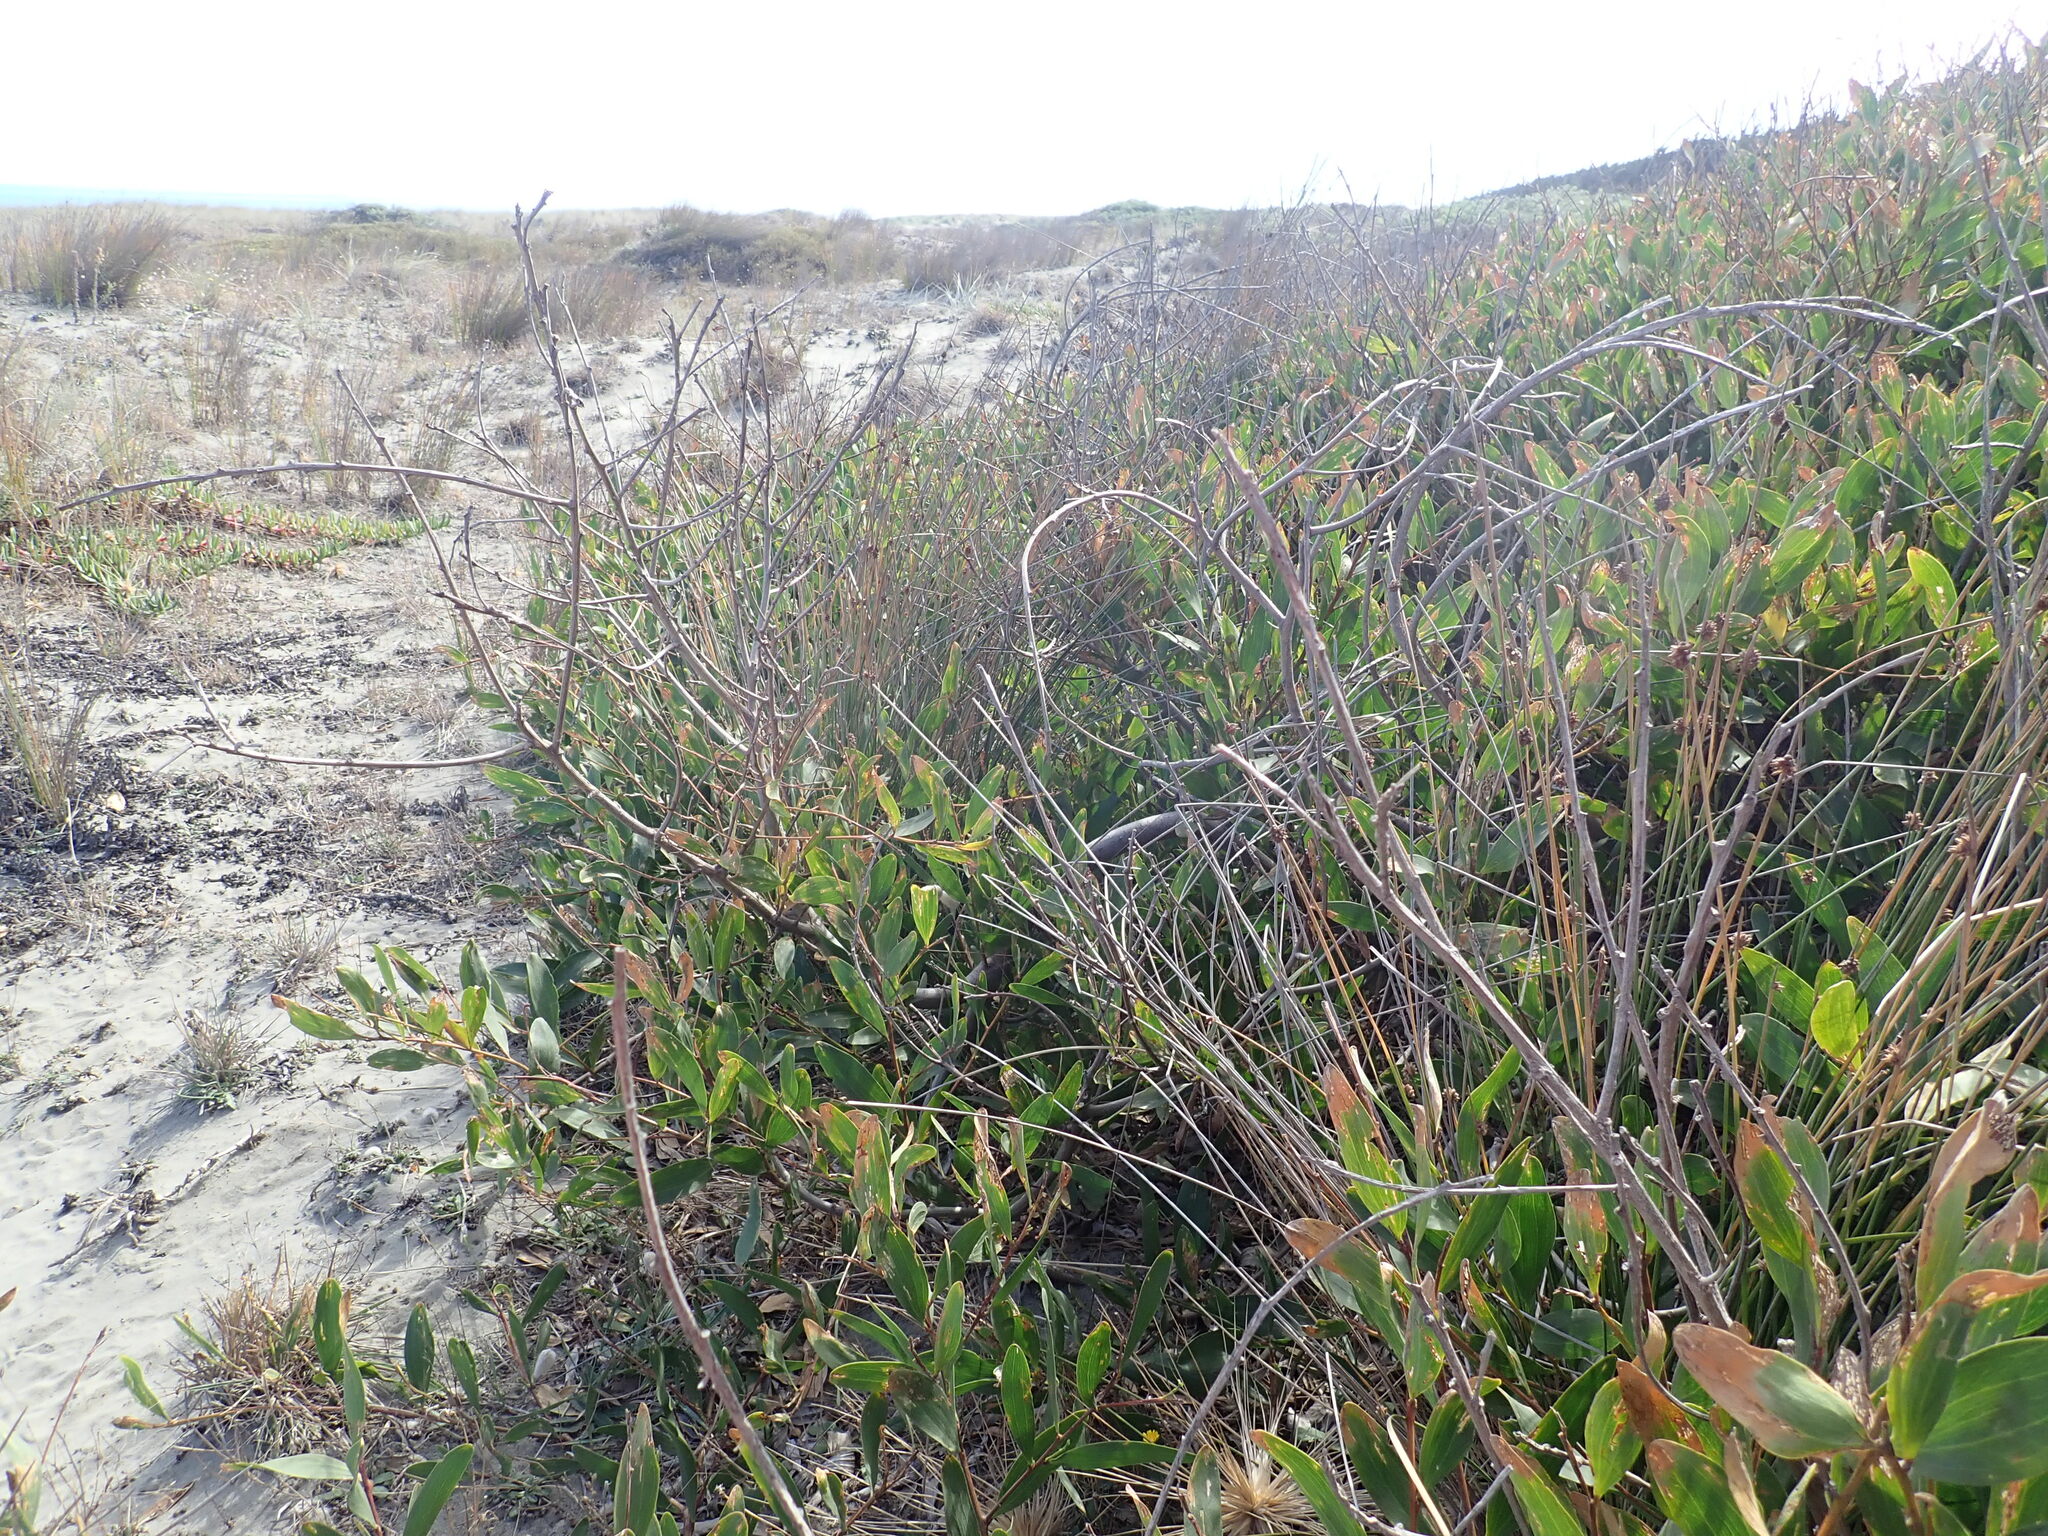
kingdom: Plantae
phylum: Tracheophyta
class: Magnoliopsida
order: Fabales
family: Fabaceae
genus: Acacia
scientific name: Acacia longifolia
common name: Sydney golden wattle
